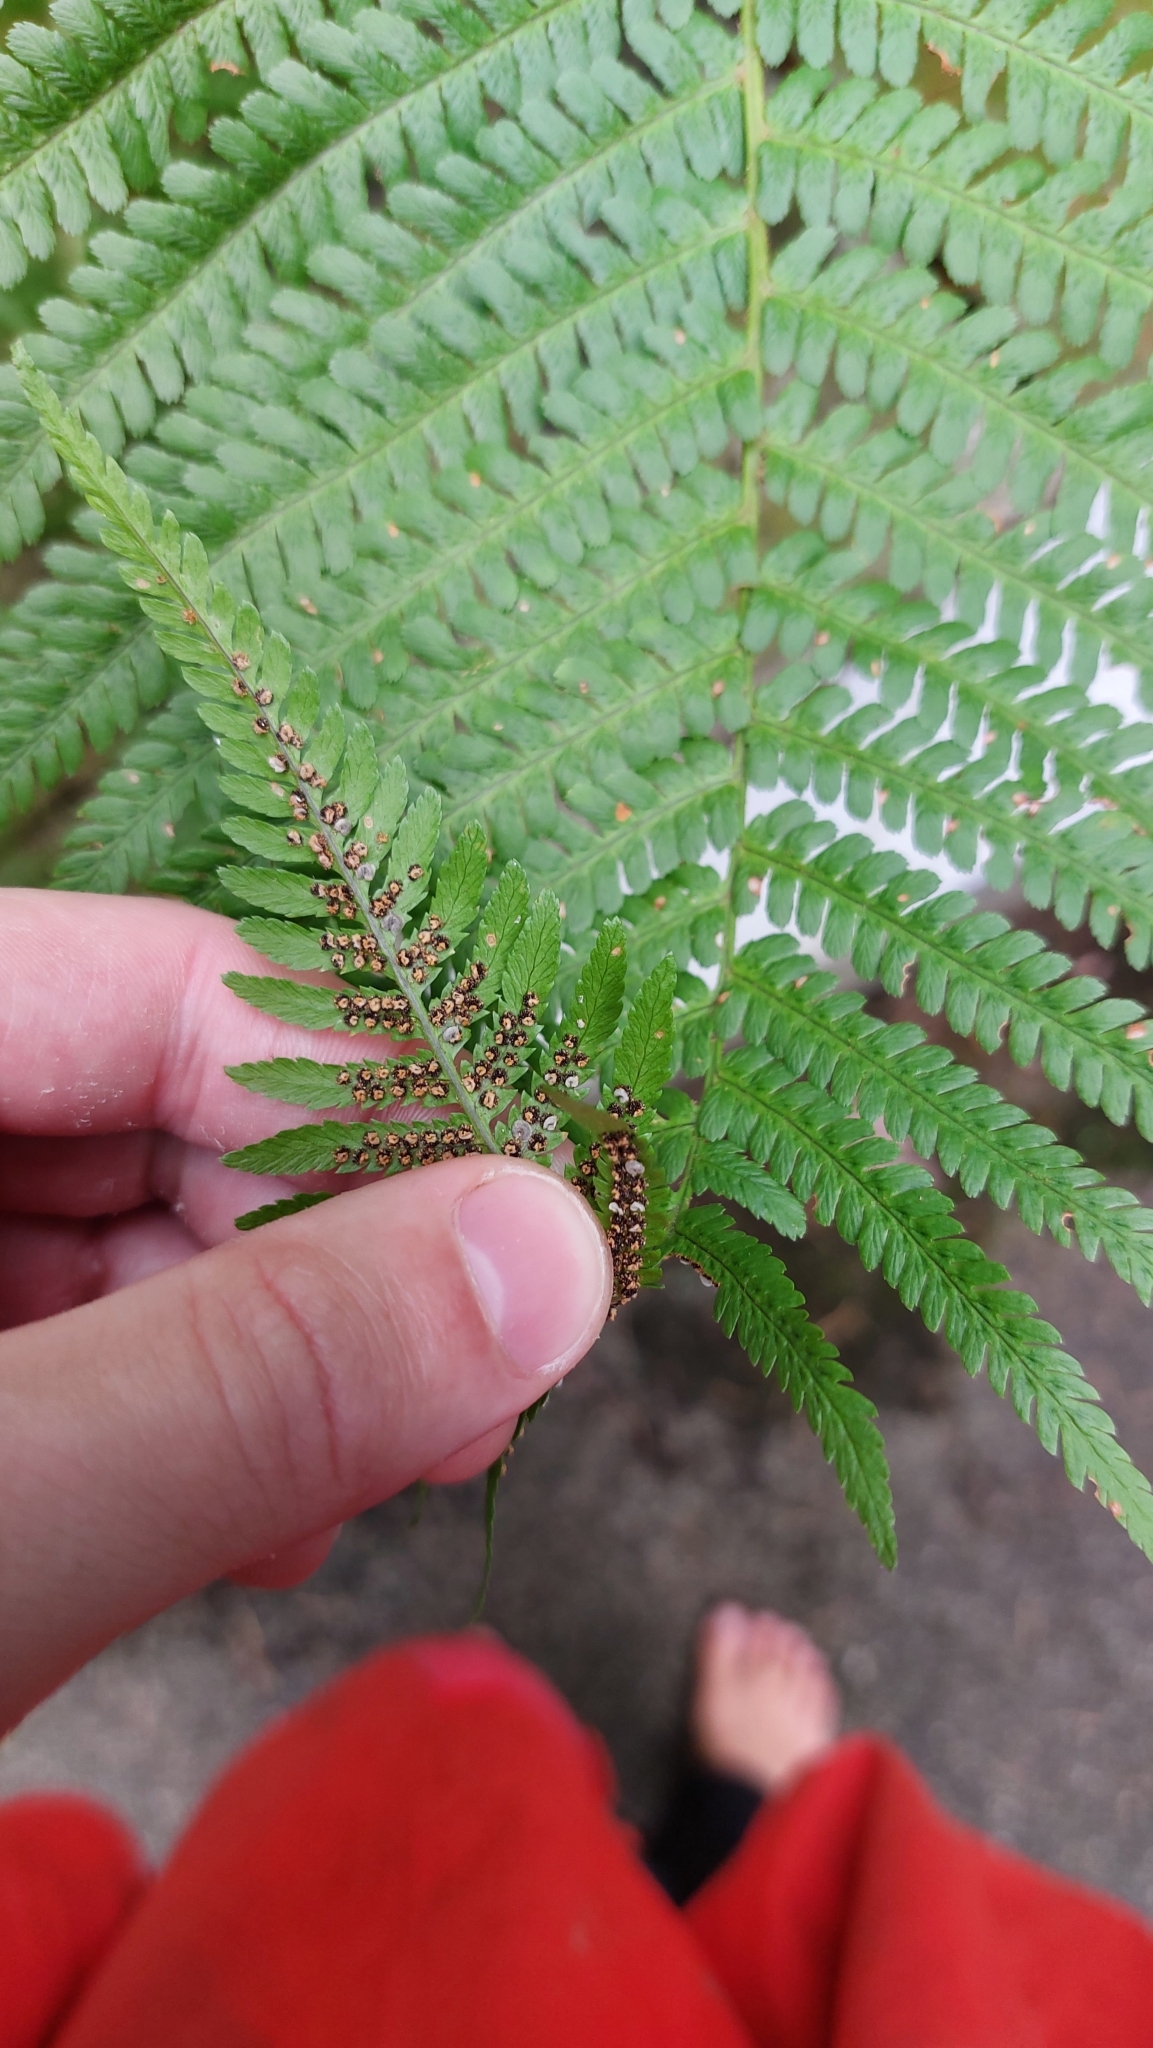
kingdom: Plantae
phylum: Tracheophyta
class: Polypodiopsida
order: Polypodiales
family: Dryopteridaceae
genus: Dryopteris
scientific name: Dryopteris filix-mas
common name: Male fern
